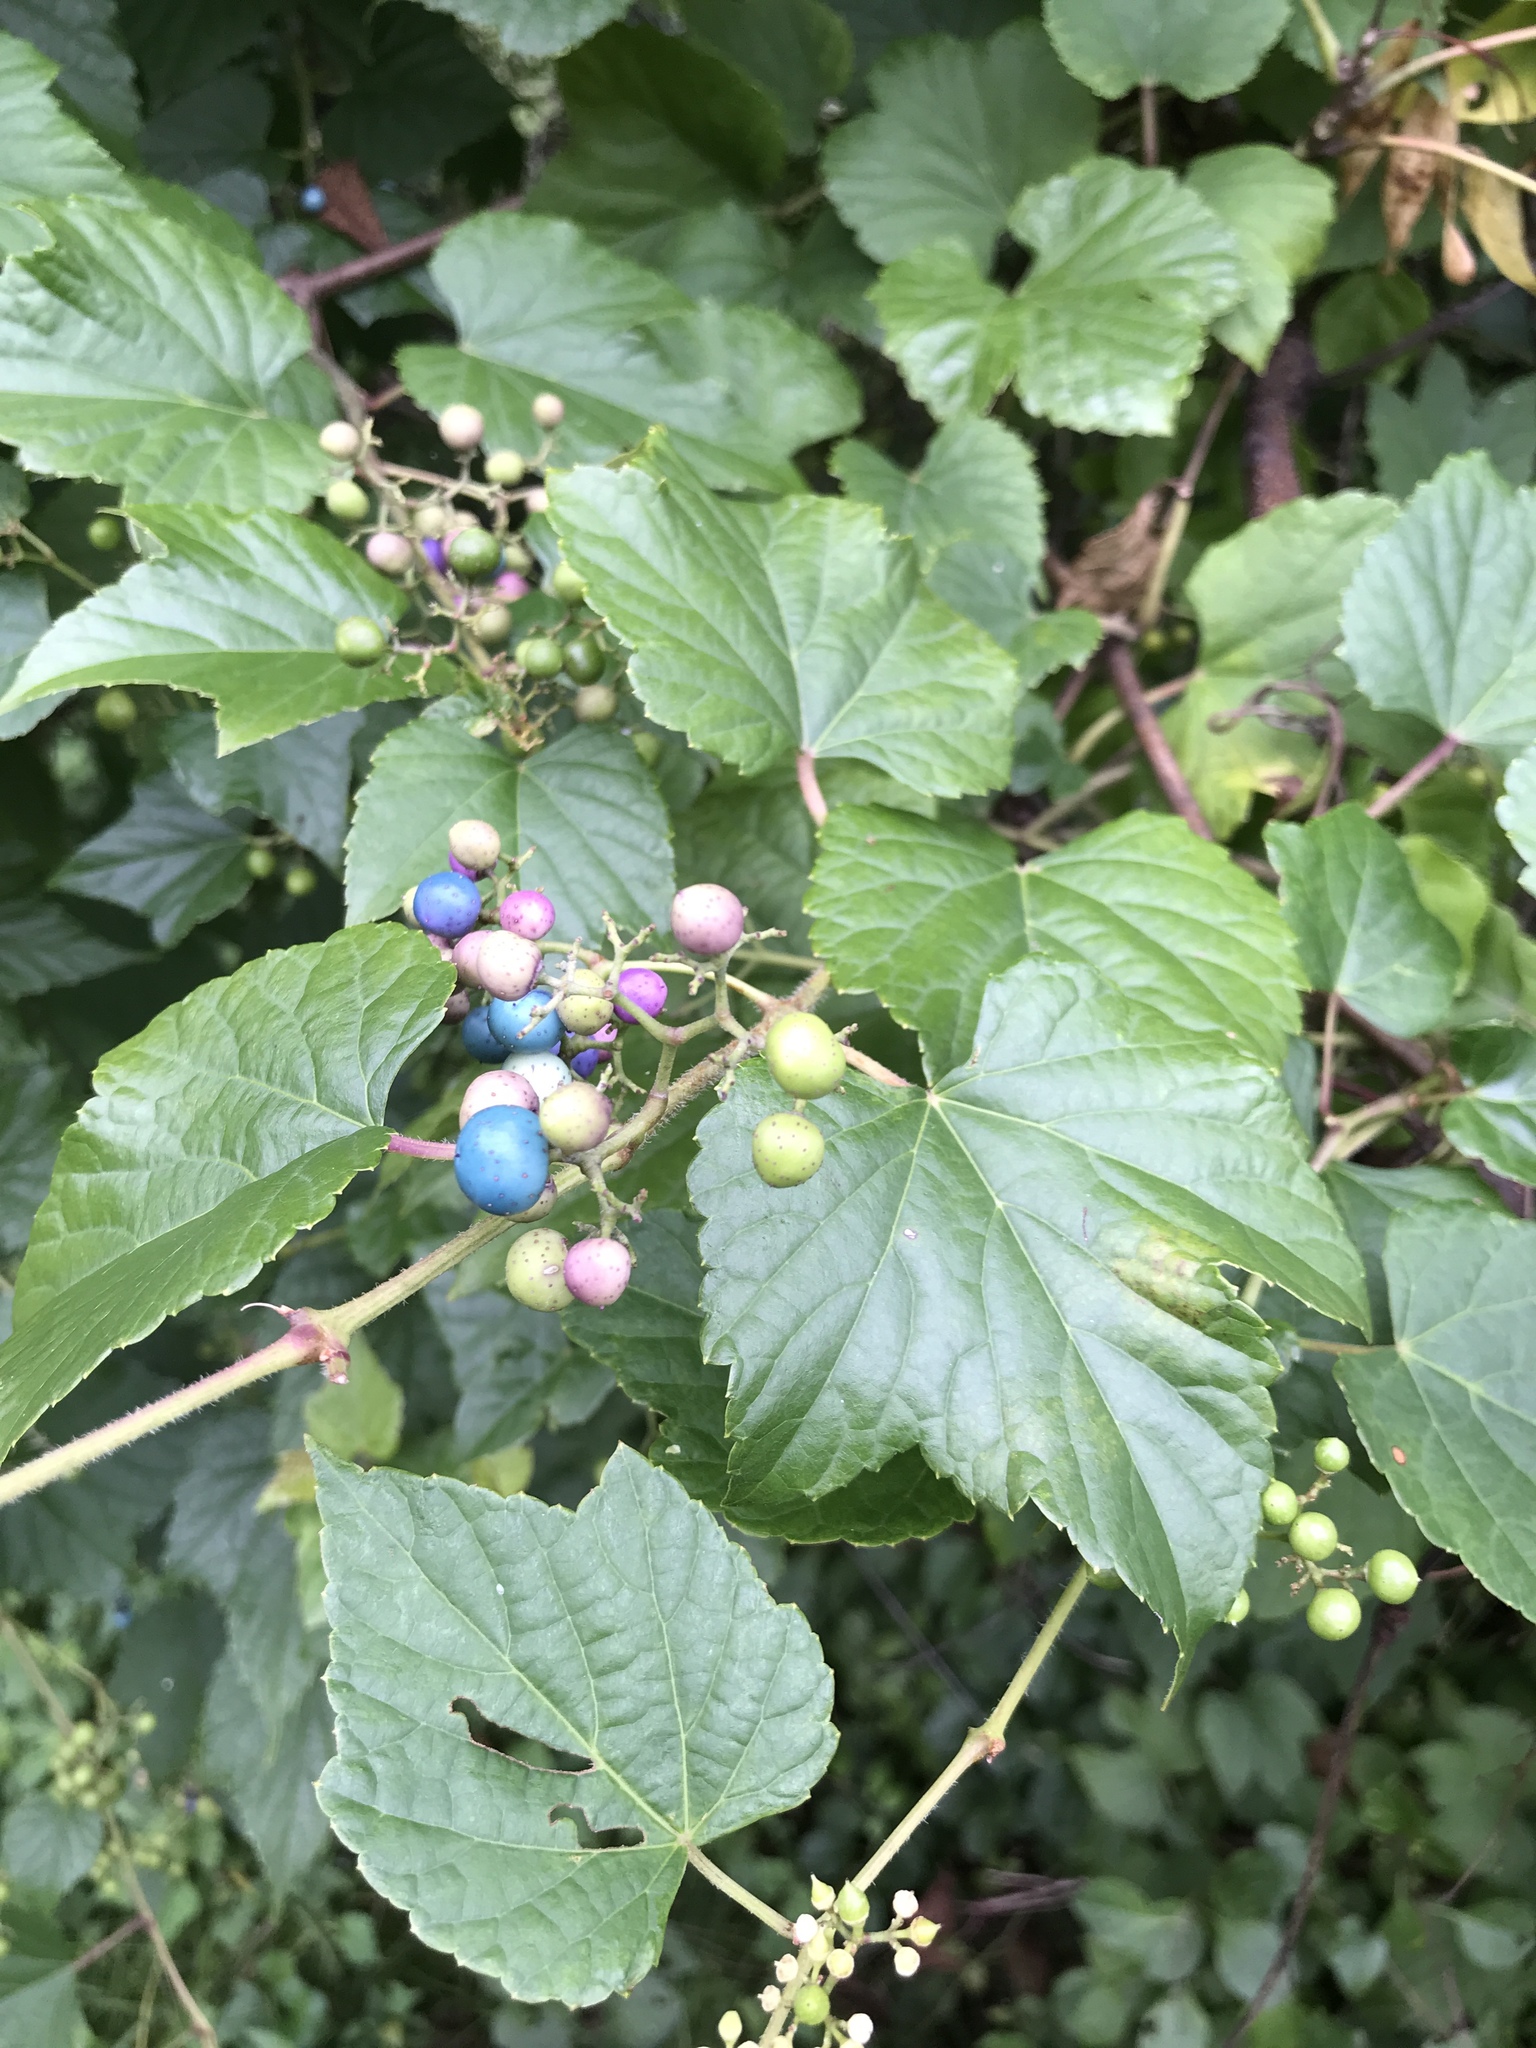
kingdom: Plantae
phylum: Tracheophyta
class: Magnoliopsida
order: Vitales
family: Vitaceae
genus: Ampelopsis
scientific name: Ampelopsis glandulosa
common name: Amur peppervine
